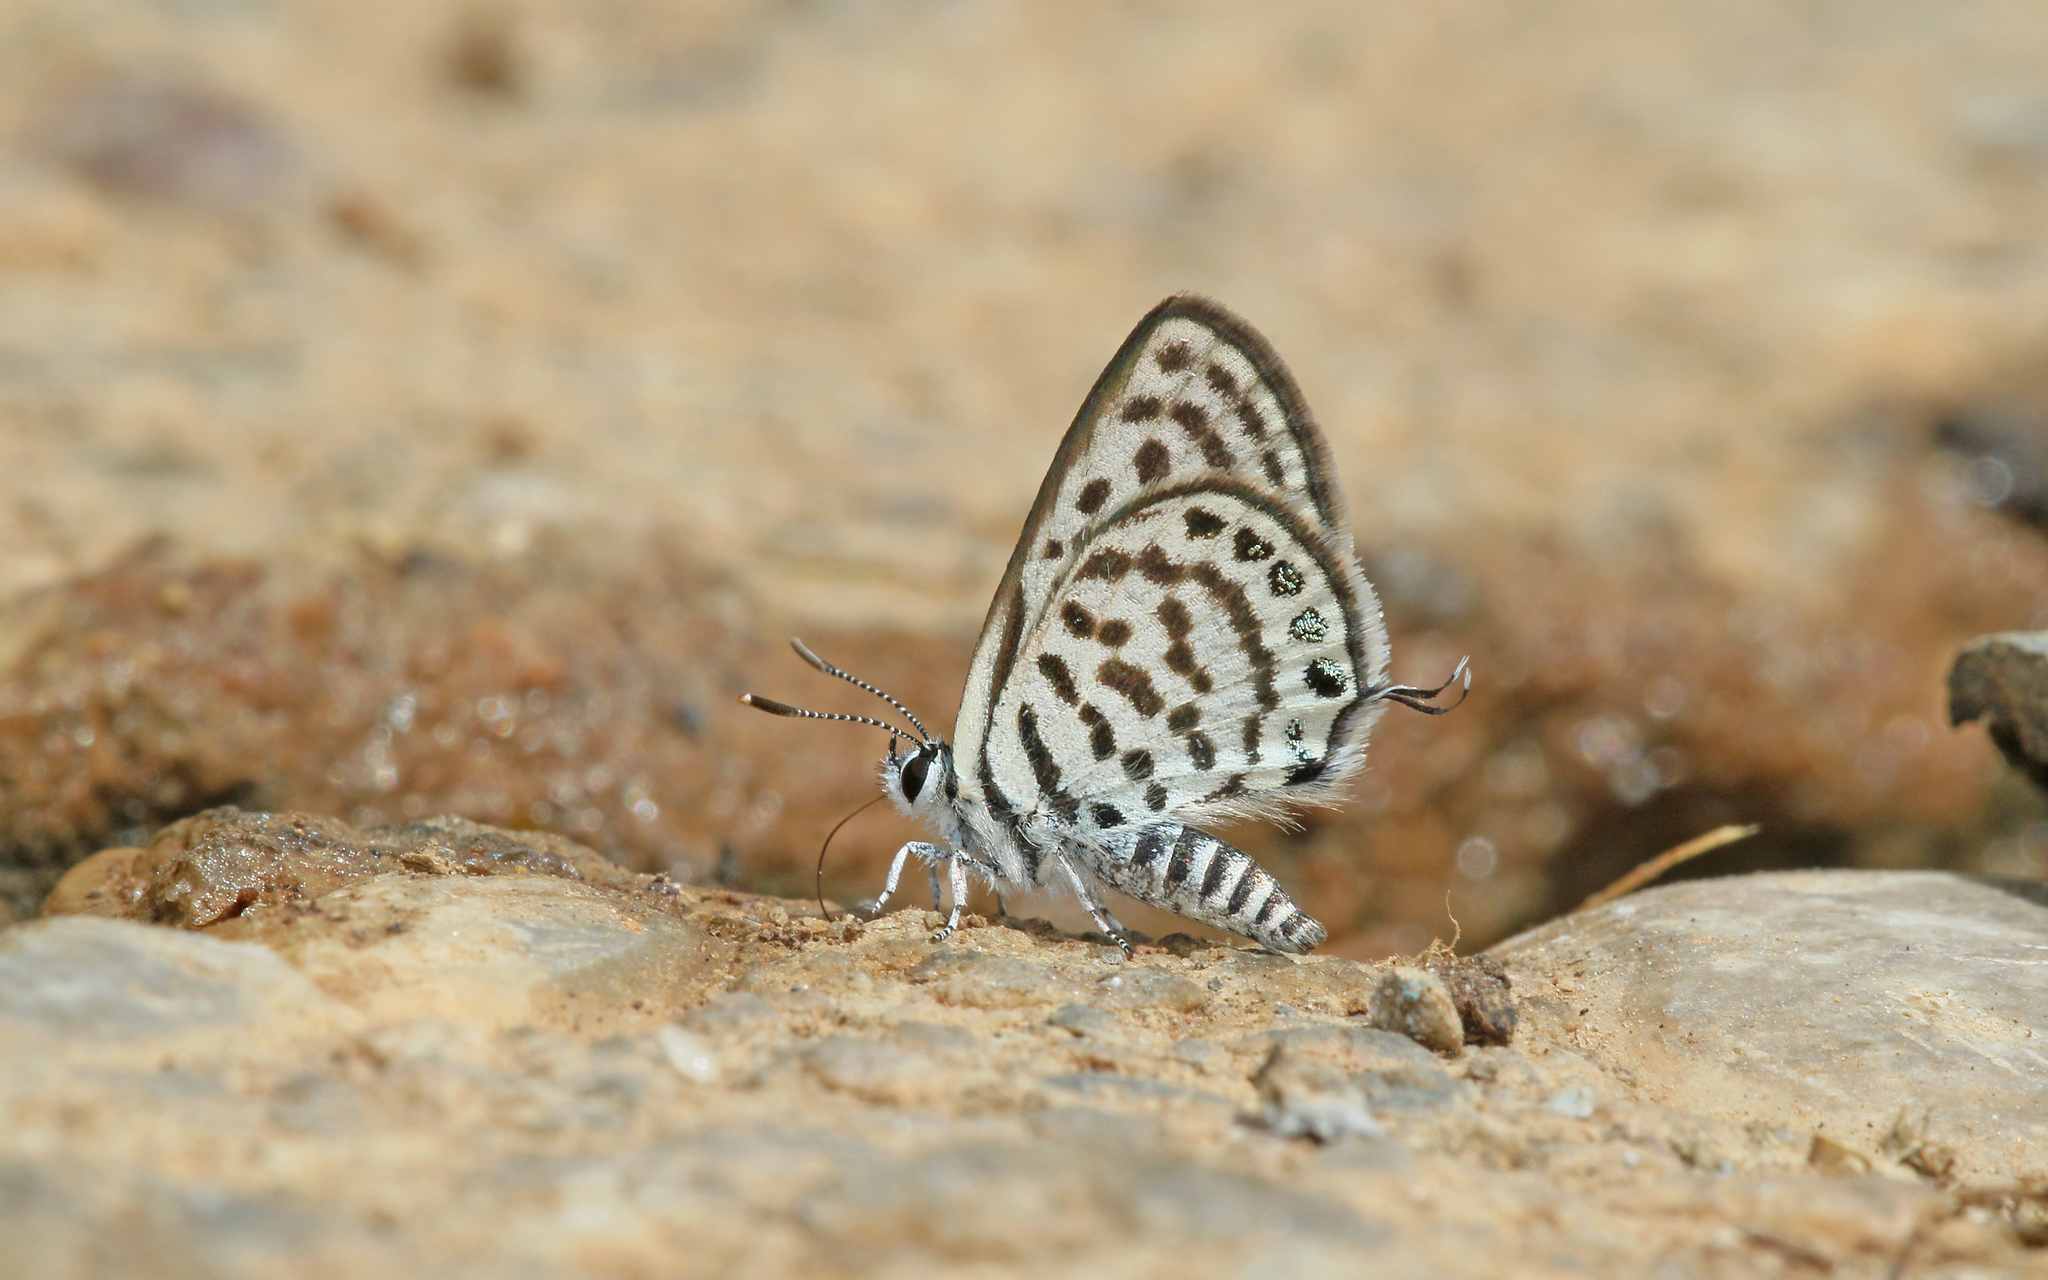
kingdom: Animalia
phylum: Arthropoda
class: Insecta
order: Lepidoptera
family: Lycaenidae
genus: Tarucus
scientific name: Tarucus balkanica
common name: Little tiger blue
